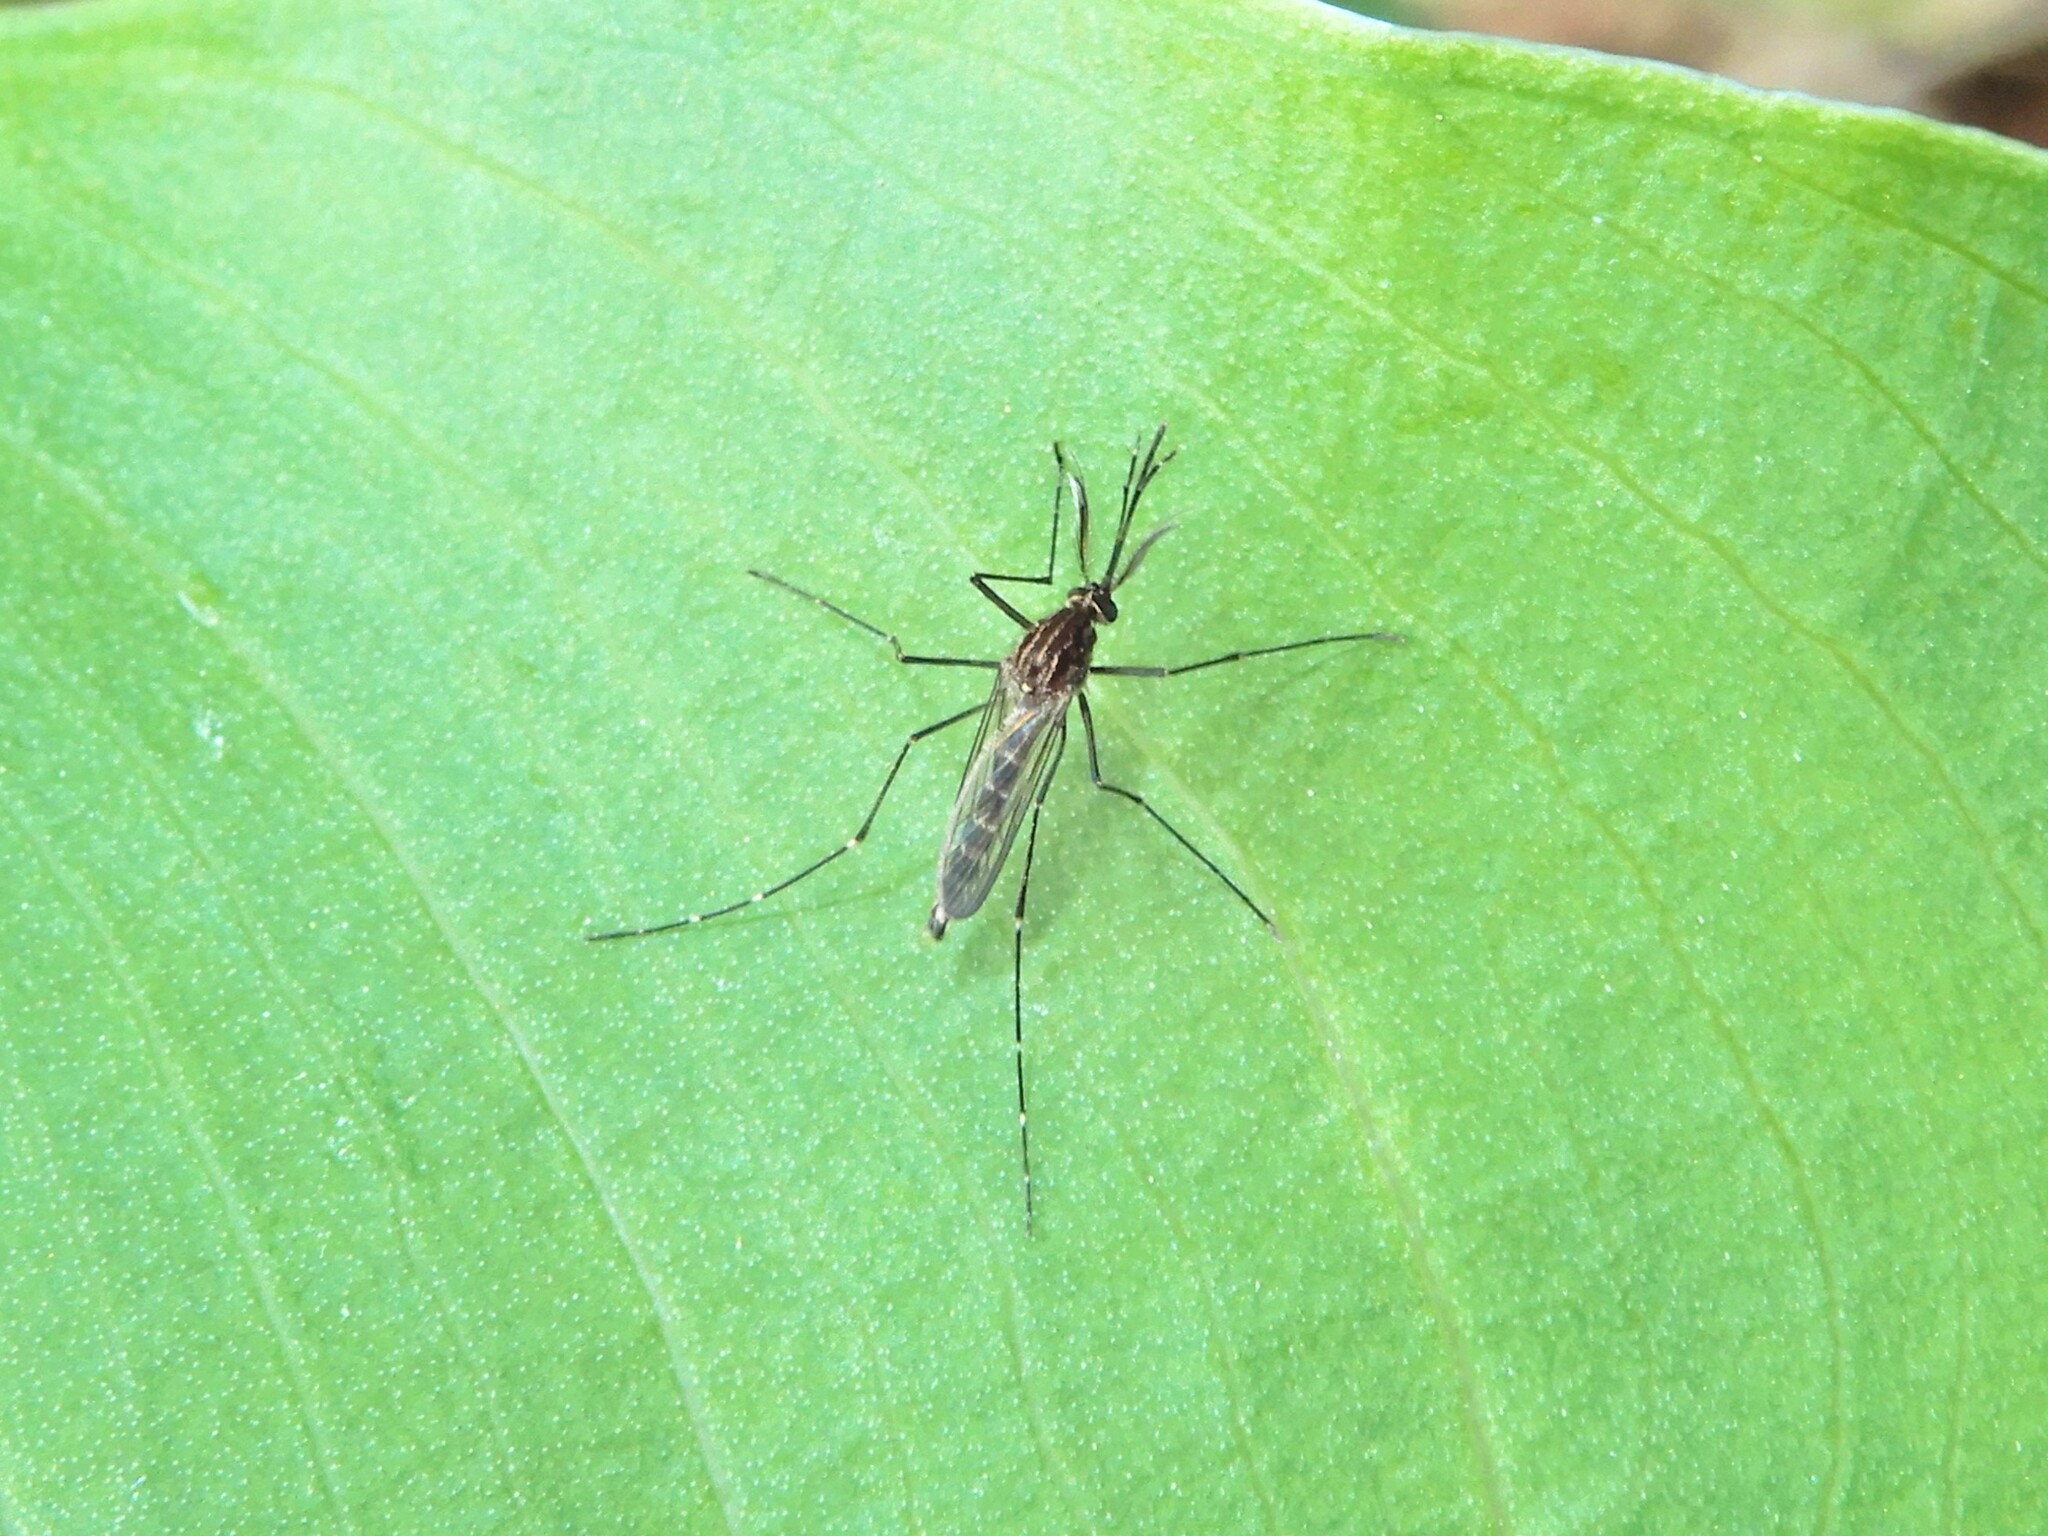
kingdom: Animalia
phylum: Arthropoda
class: Insecta
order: Diptera
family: Culicidae
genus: Aedes
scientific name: Aedes antipodeus
